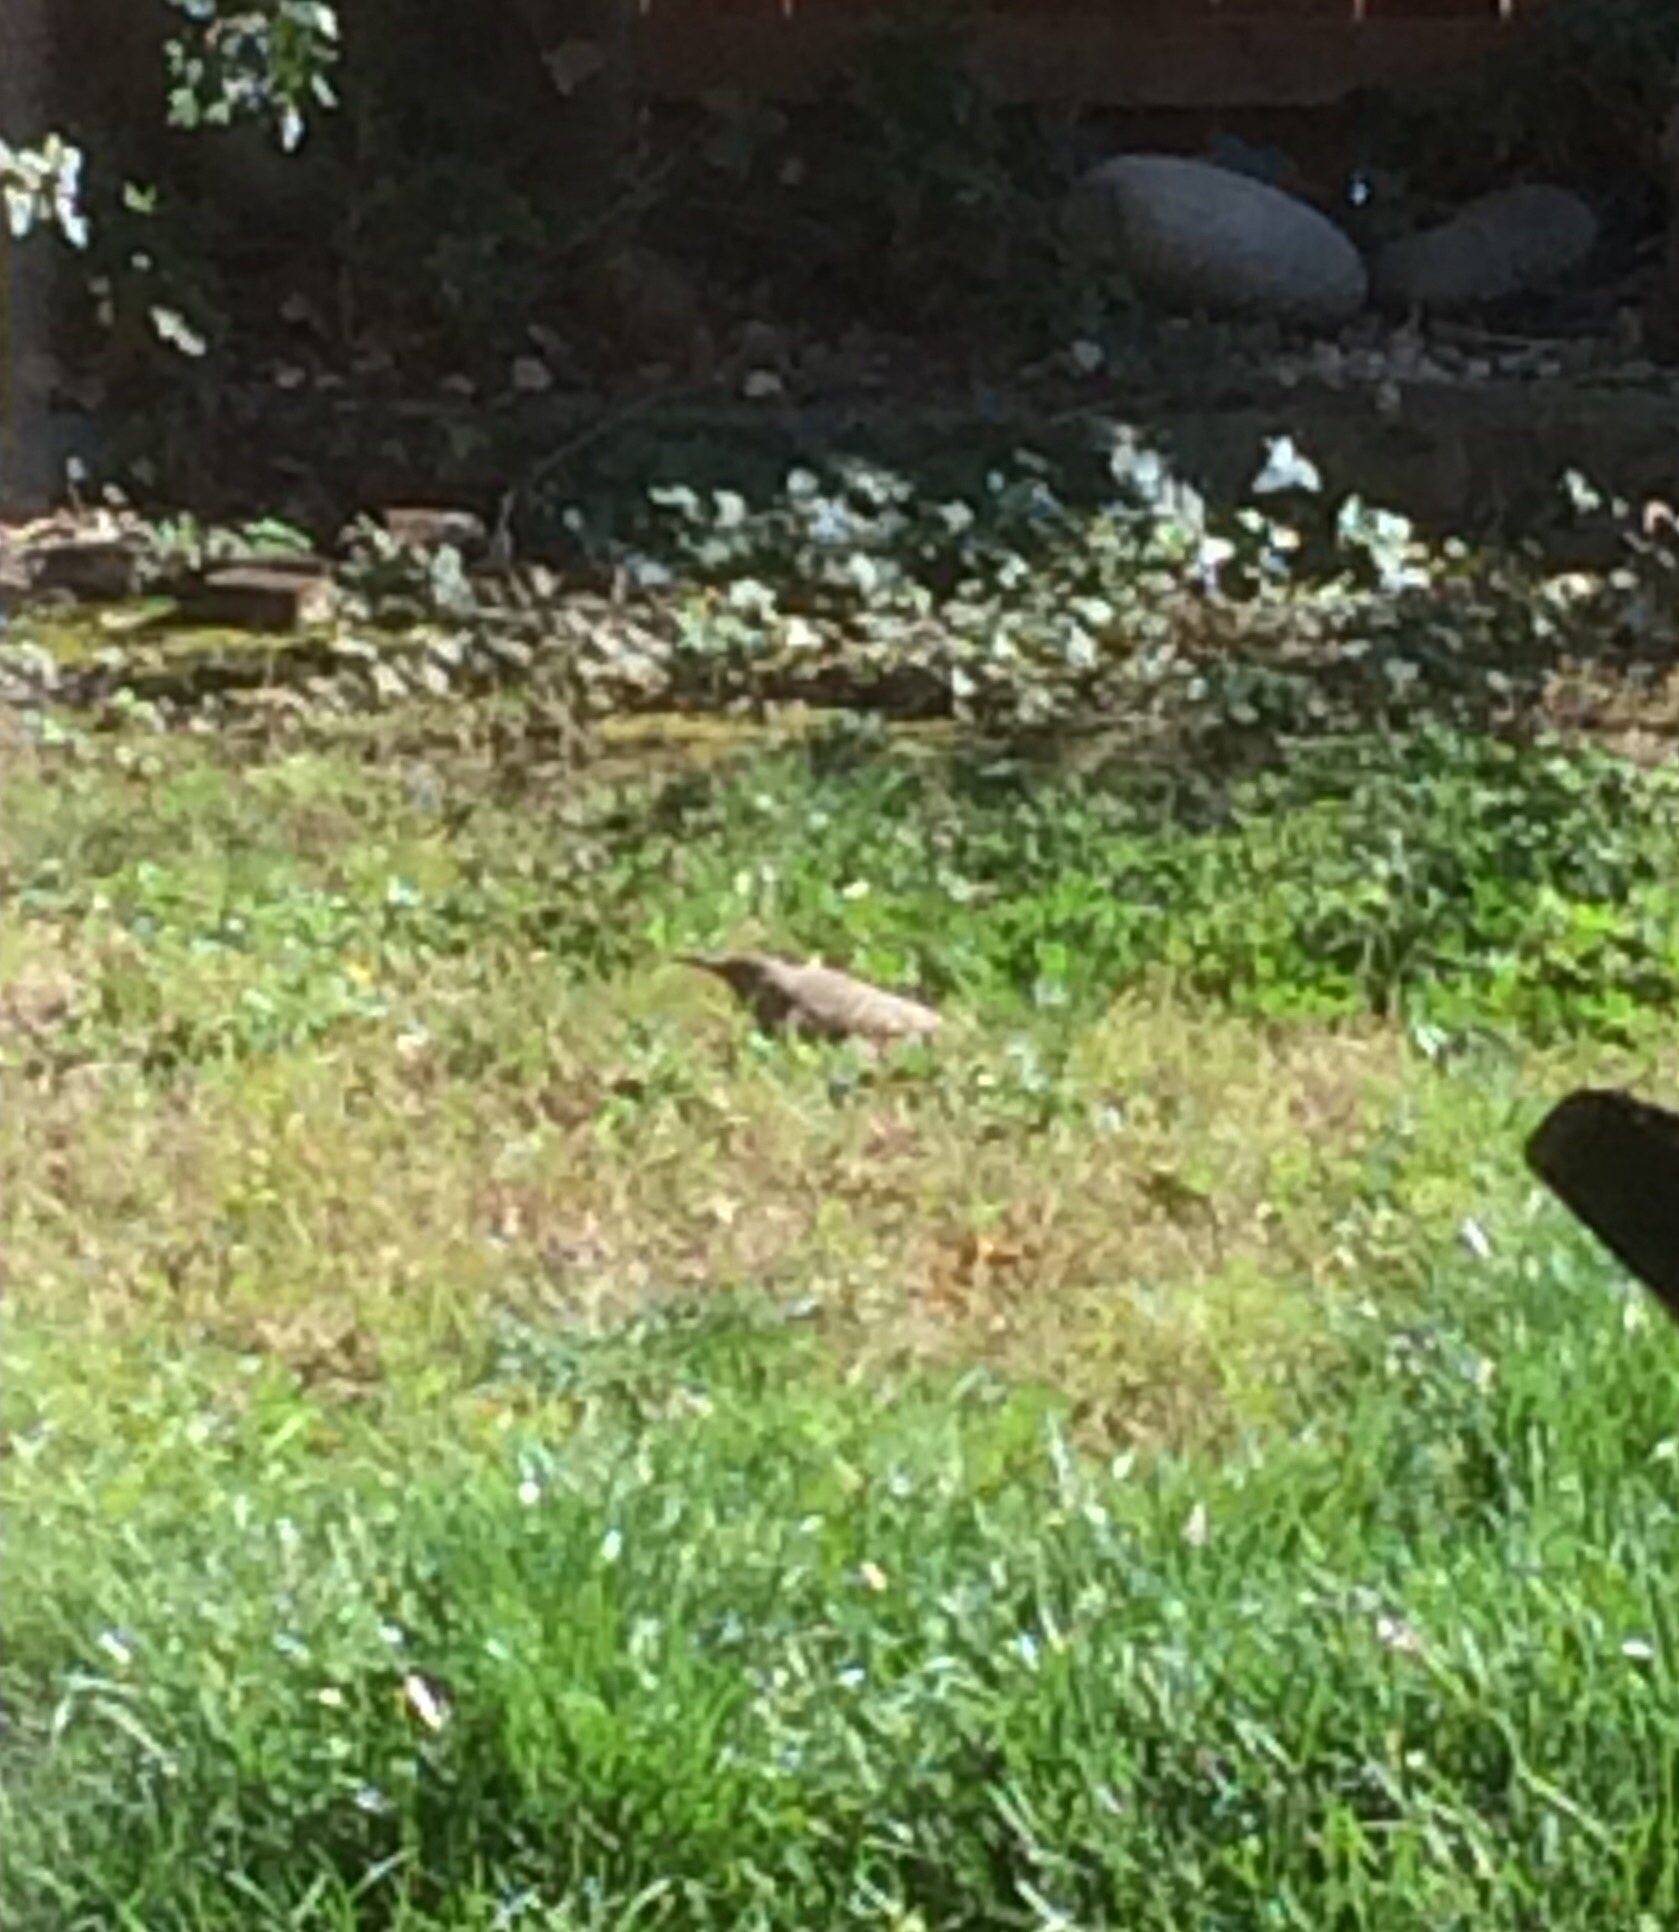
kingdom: Animalia
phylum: Chordata
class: Aves
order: Piciformes
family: Picidae
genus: Colaptes
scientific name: Colaptes auratus
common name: Northern flicker
